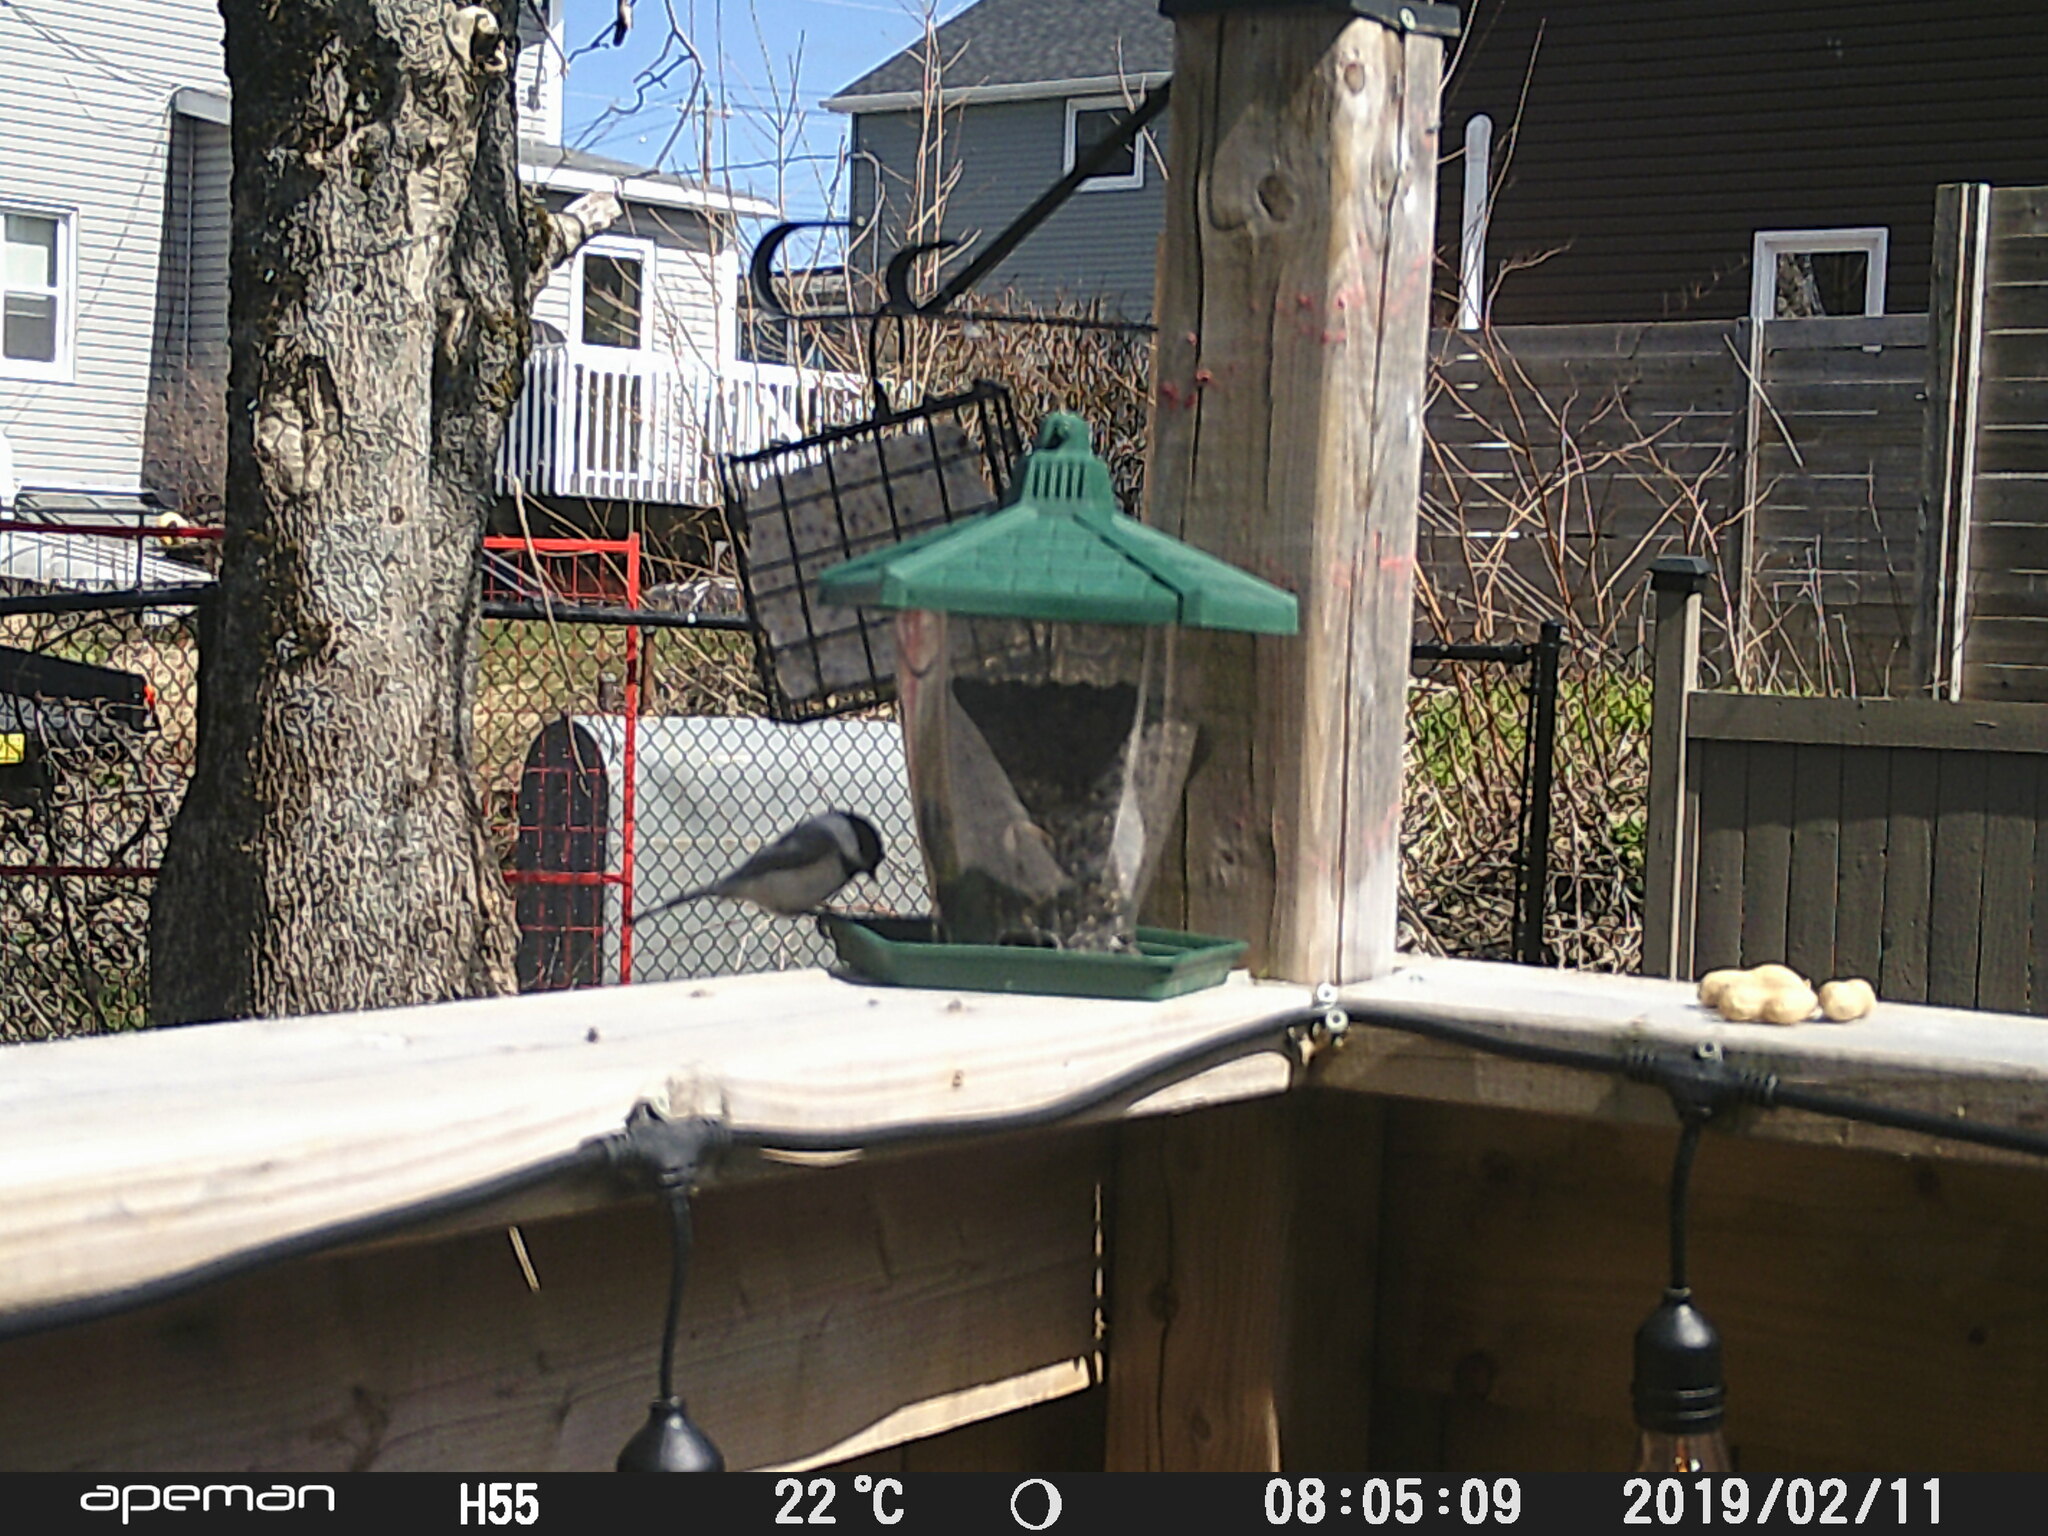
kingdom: Animalia
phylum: Chordata
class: Aves
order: Passeriformes
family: Paridae
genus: Poecile
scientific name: Poecile atricapillus
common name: Black-capped chickadee
